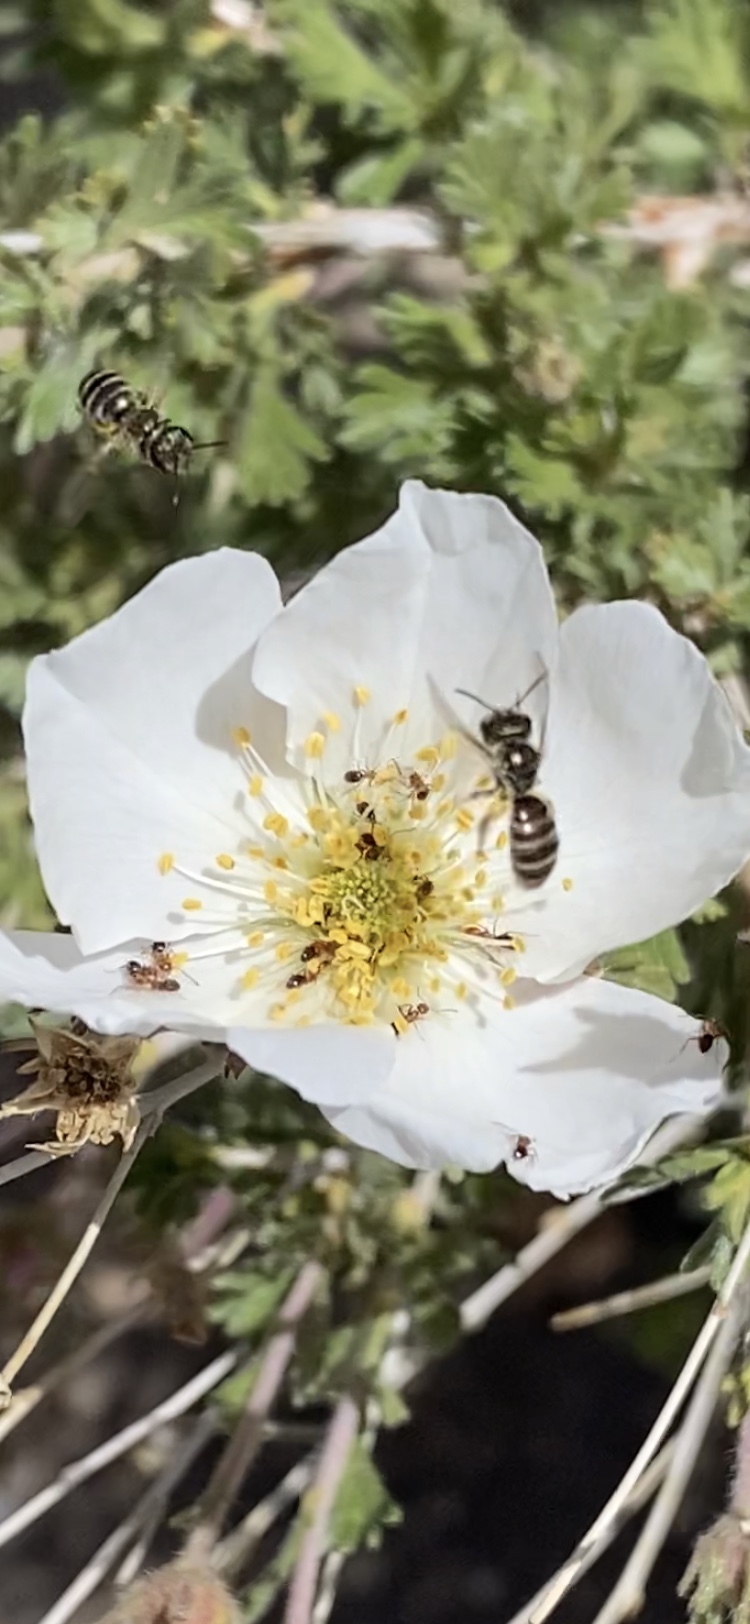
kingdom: Animalia
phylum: Arthropoda
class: Insecta
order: Hymenoptera
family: Halictidae
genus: Halictus
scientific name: Halictus tripartitus
